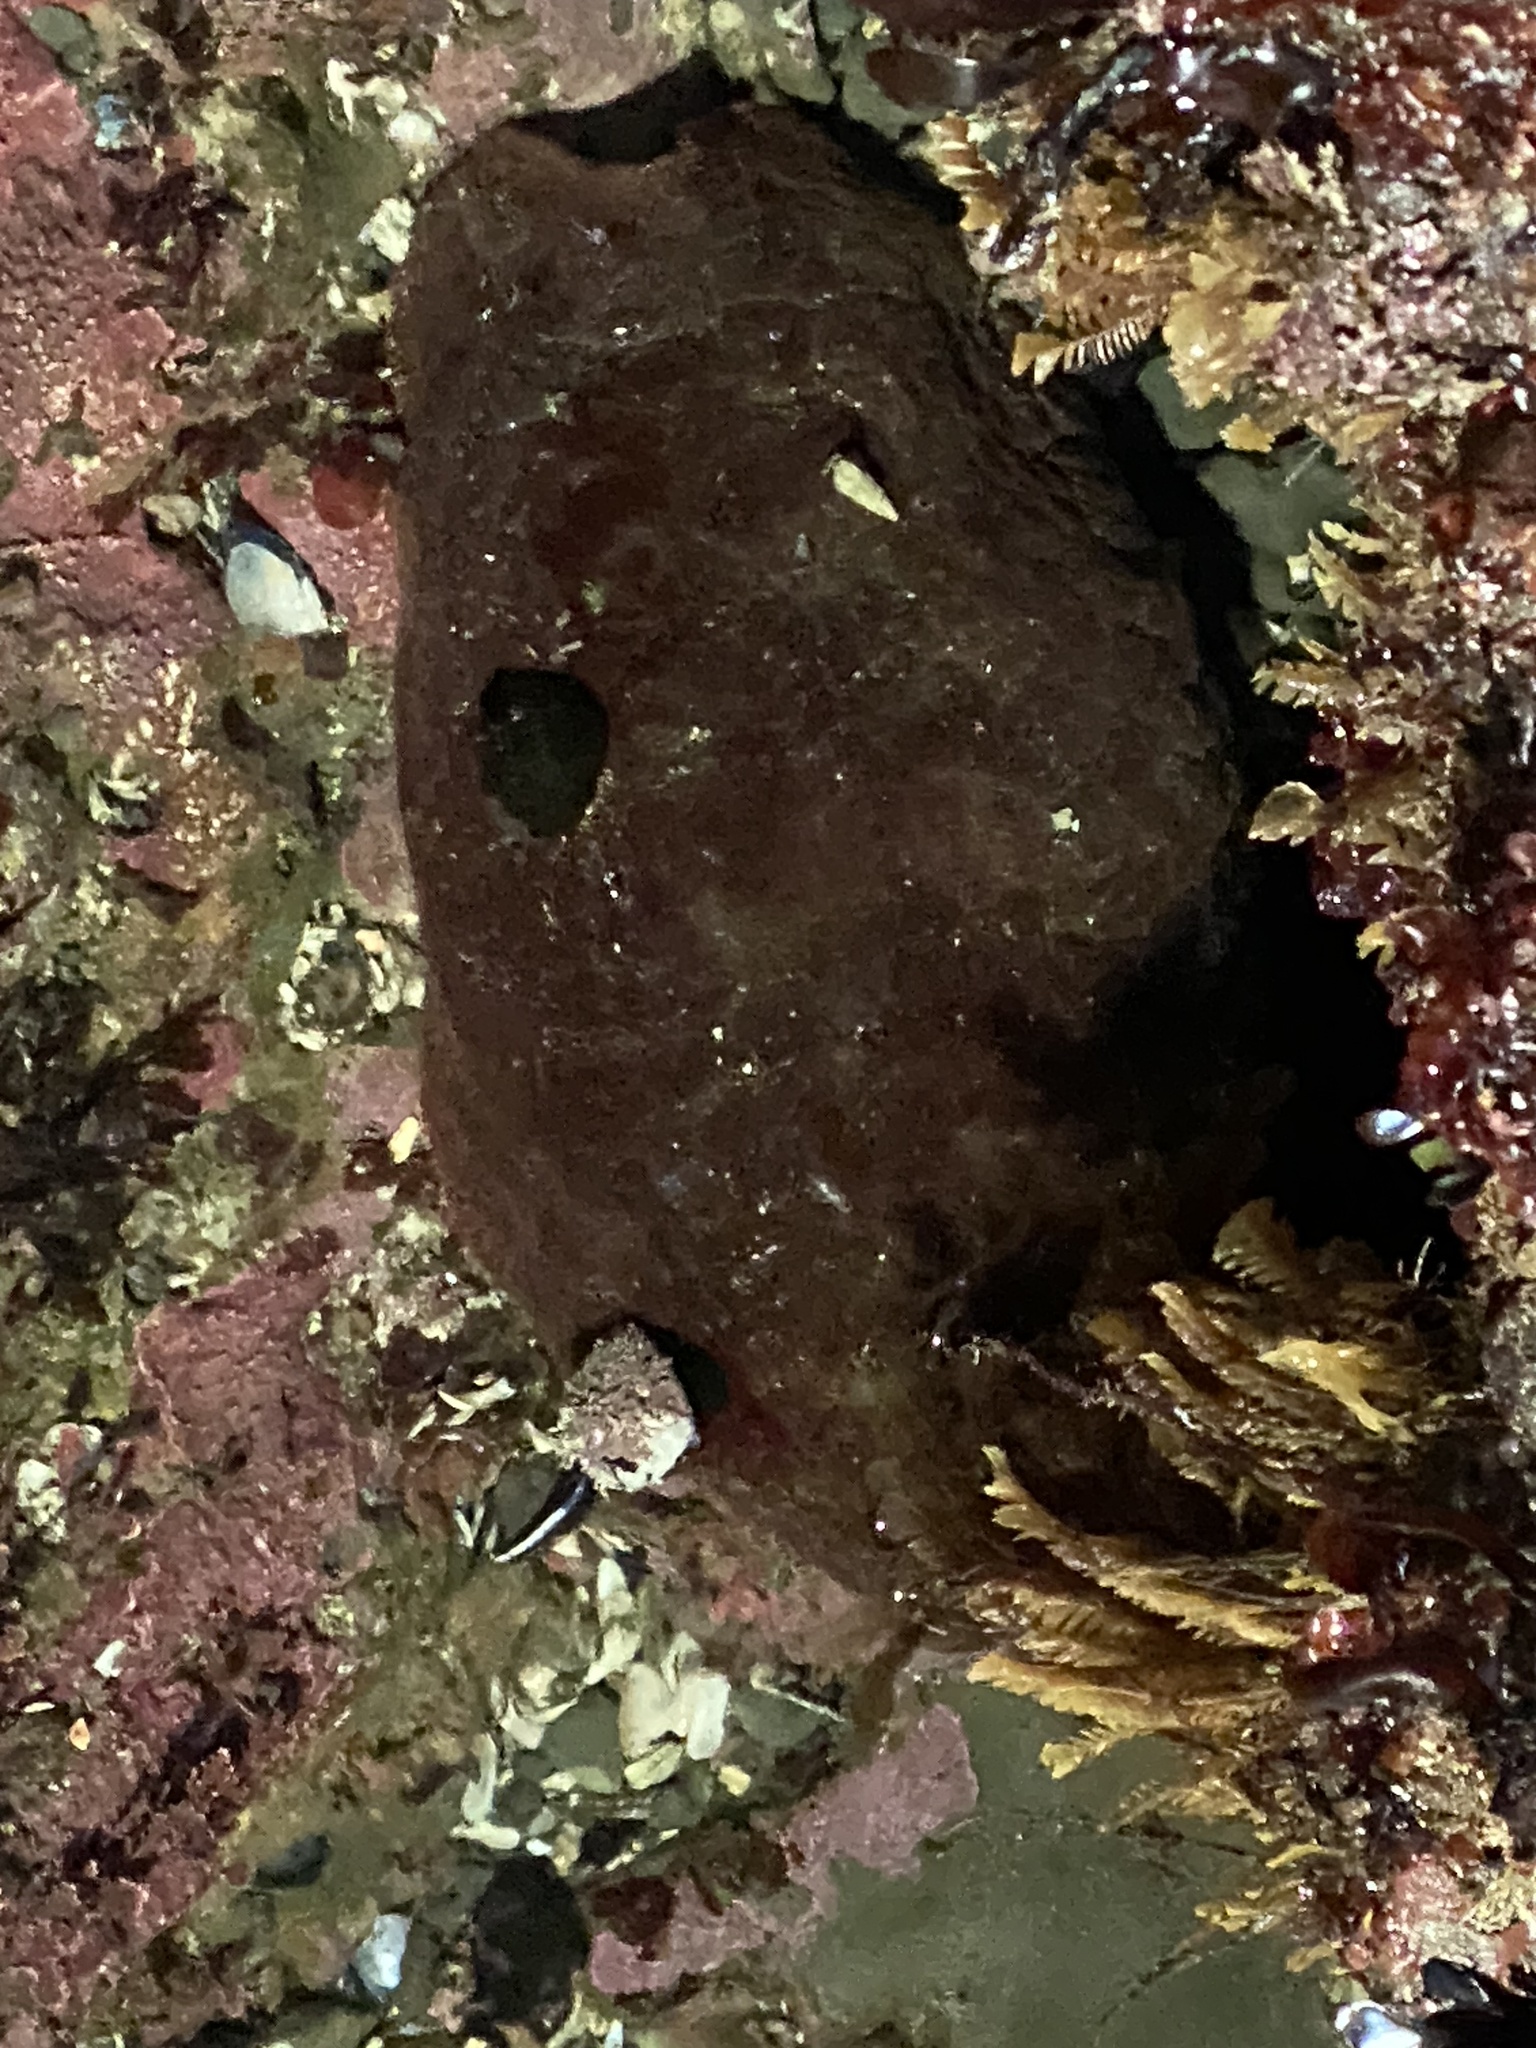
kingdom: Animalia
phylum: Mollusca
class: Polyplacophora
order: Chitonida
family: Acanthochitonidae
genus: Cryptochiton
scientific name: Cryptochiton stelleri
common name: Giant pacific chiton
